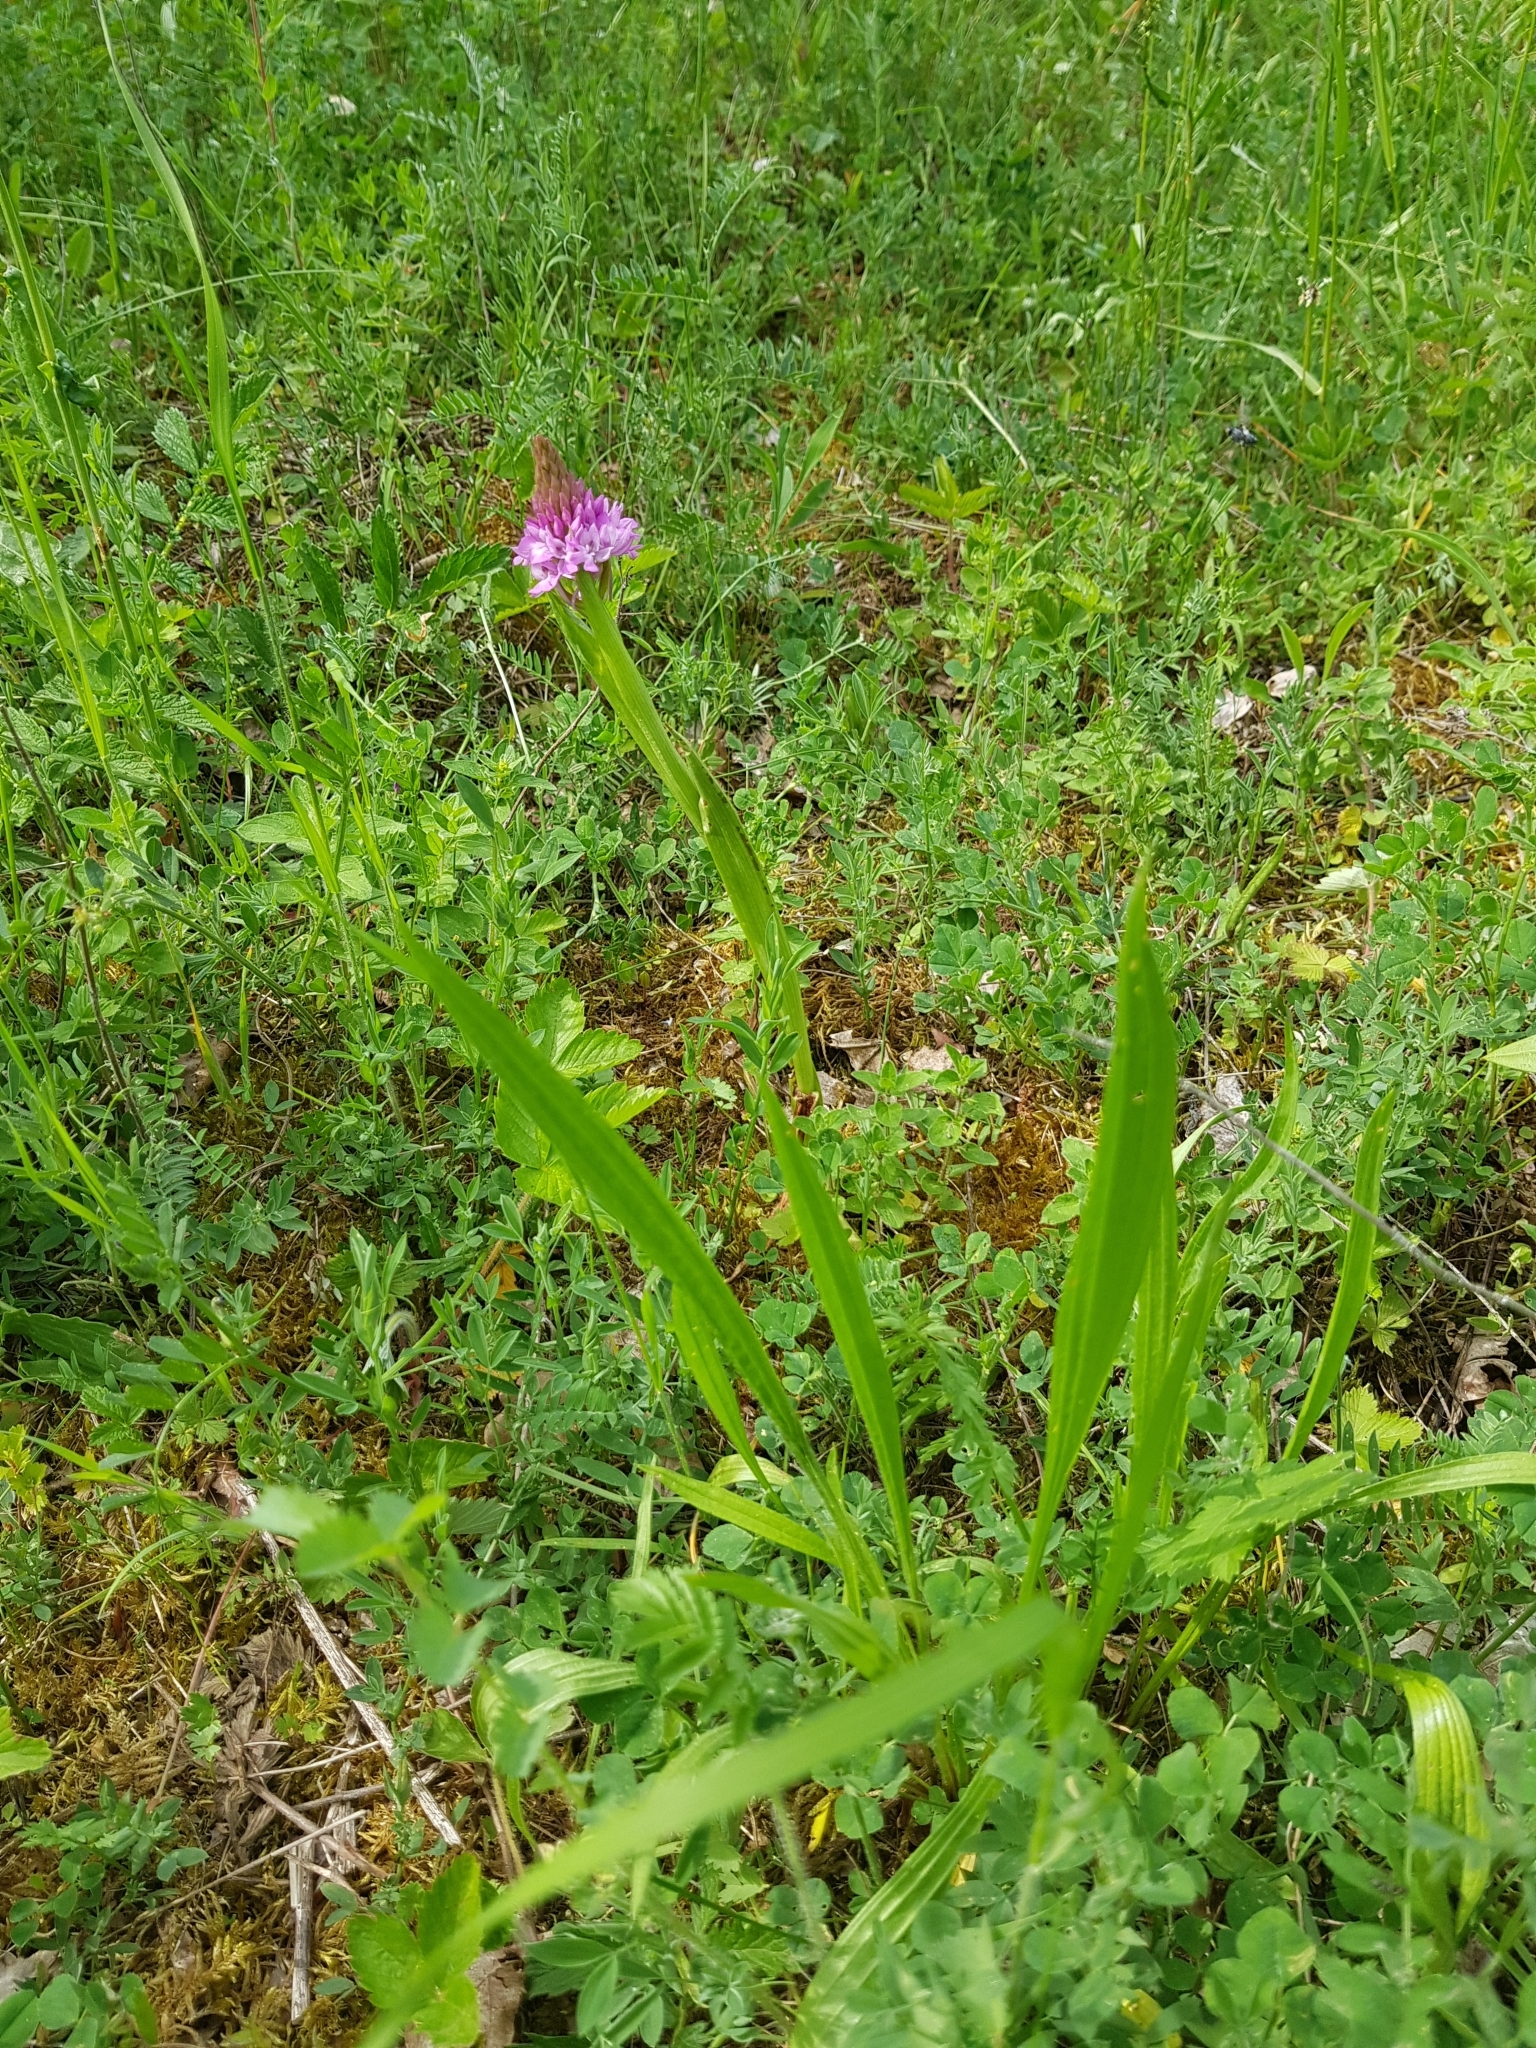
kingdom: Plantae
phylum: Tracheophyta
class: Liliopsida
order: Asparagales
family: Orchidaceae
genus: Anacamptis
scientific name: Anacamptis pyramidalis
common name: Pyramidal orchid
